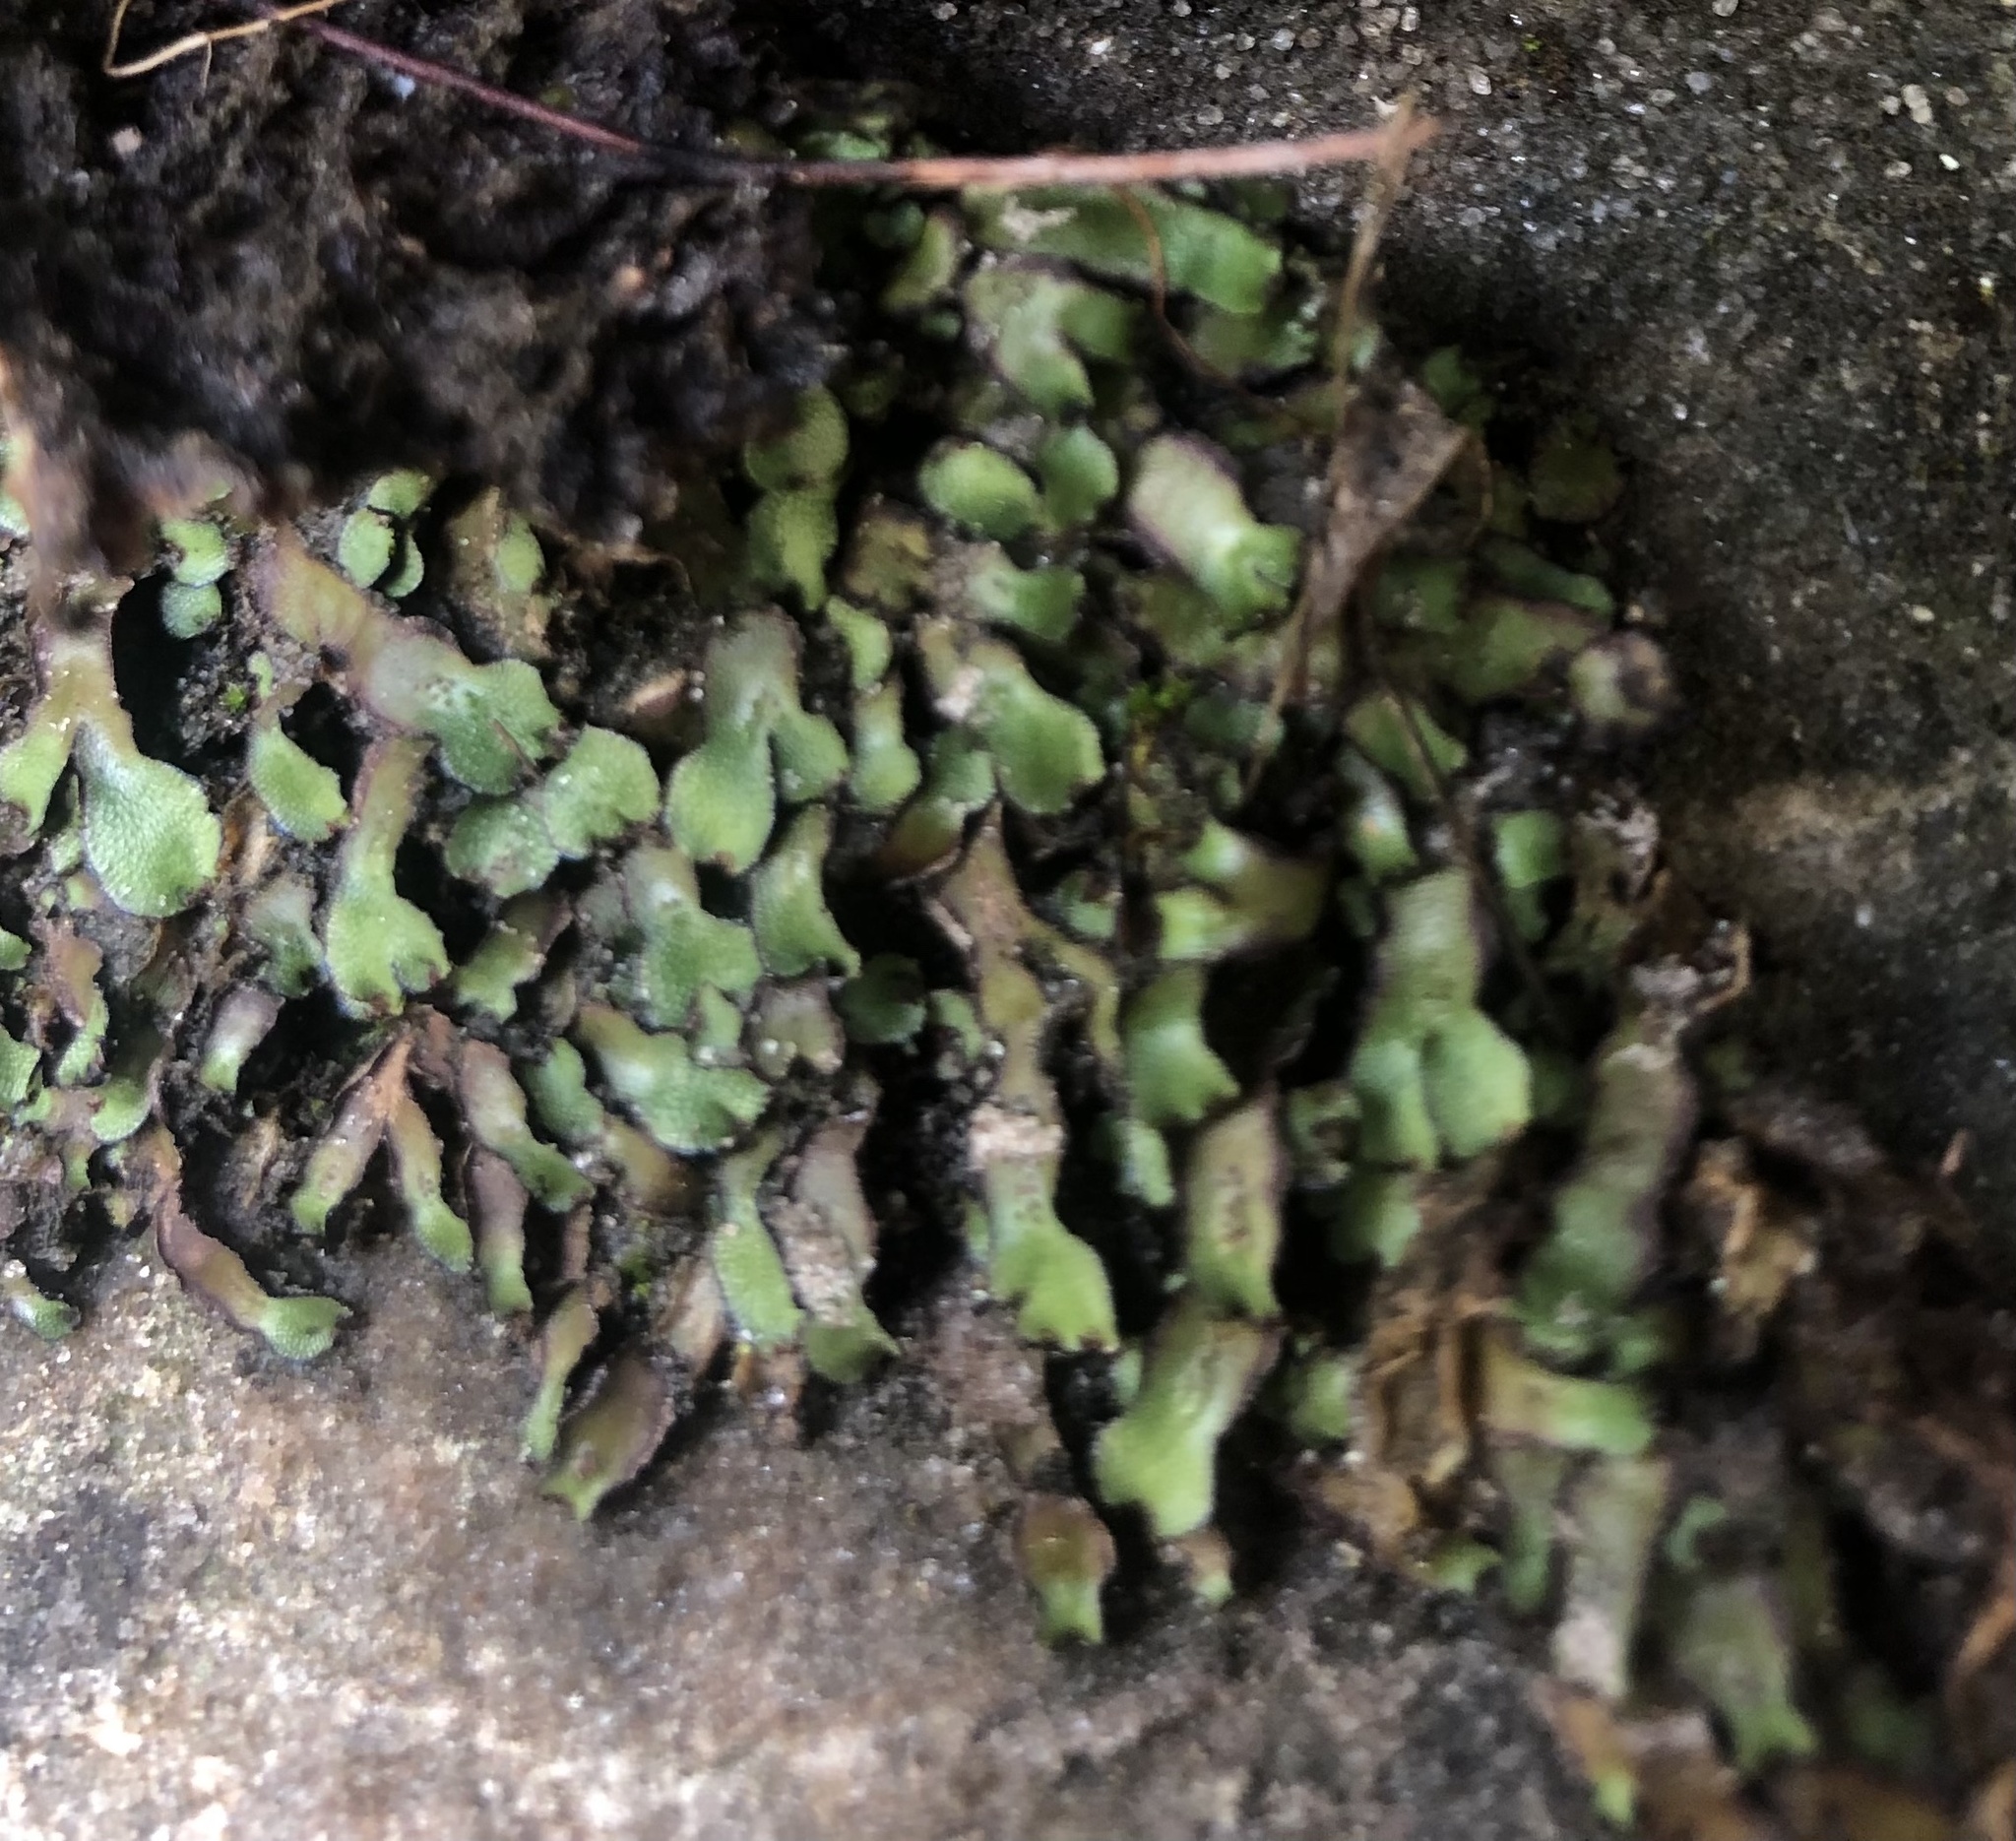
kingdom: Plantae
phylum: Marchantiophyta
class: Marchantiopsida
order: Marchantiales
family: Aytoniaceae
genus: Mannia
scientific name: Mannia californica
